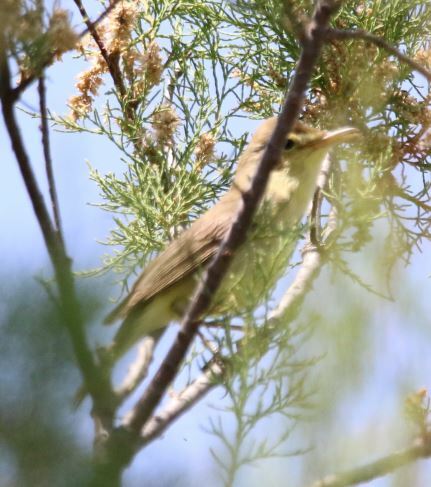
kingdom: Animalia
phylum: Chordata
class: Aves
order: Passeriformes
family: Acrocephalidae
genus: Hippolais
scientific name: Hippolais polyglotta
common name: Melodious warbler
